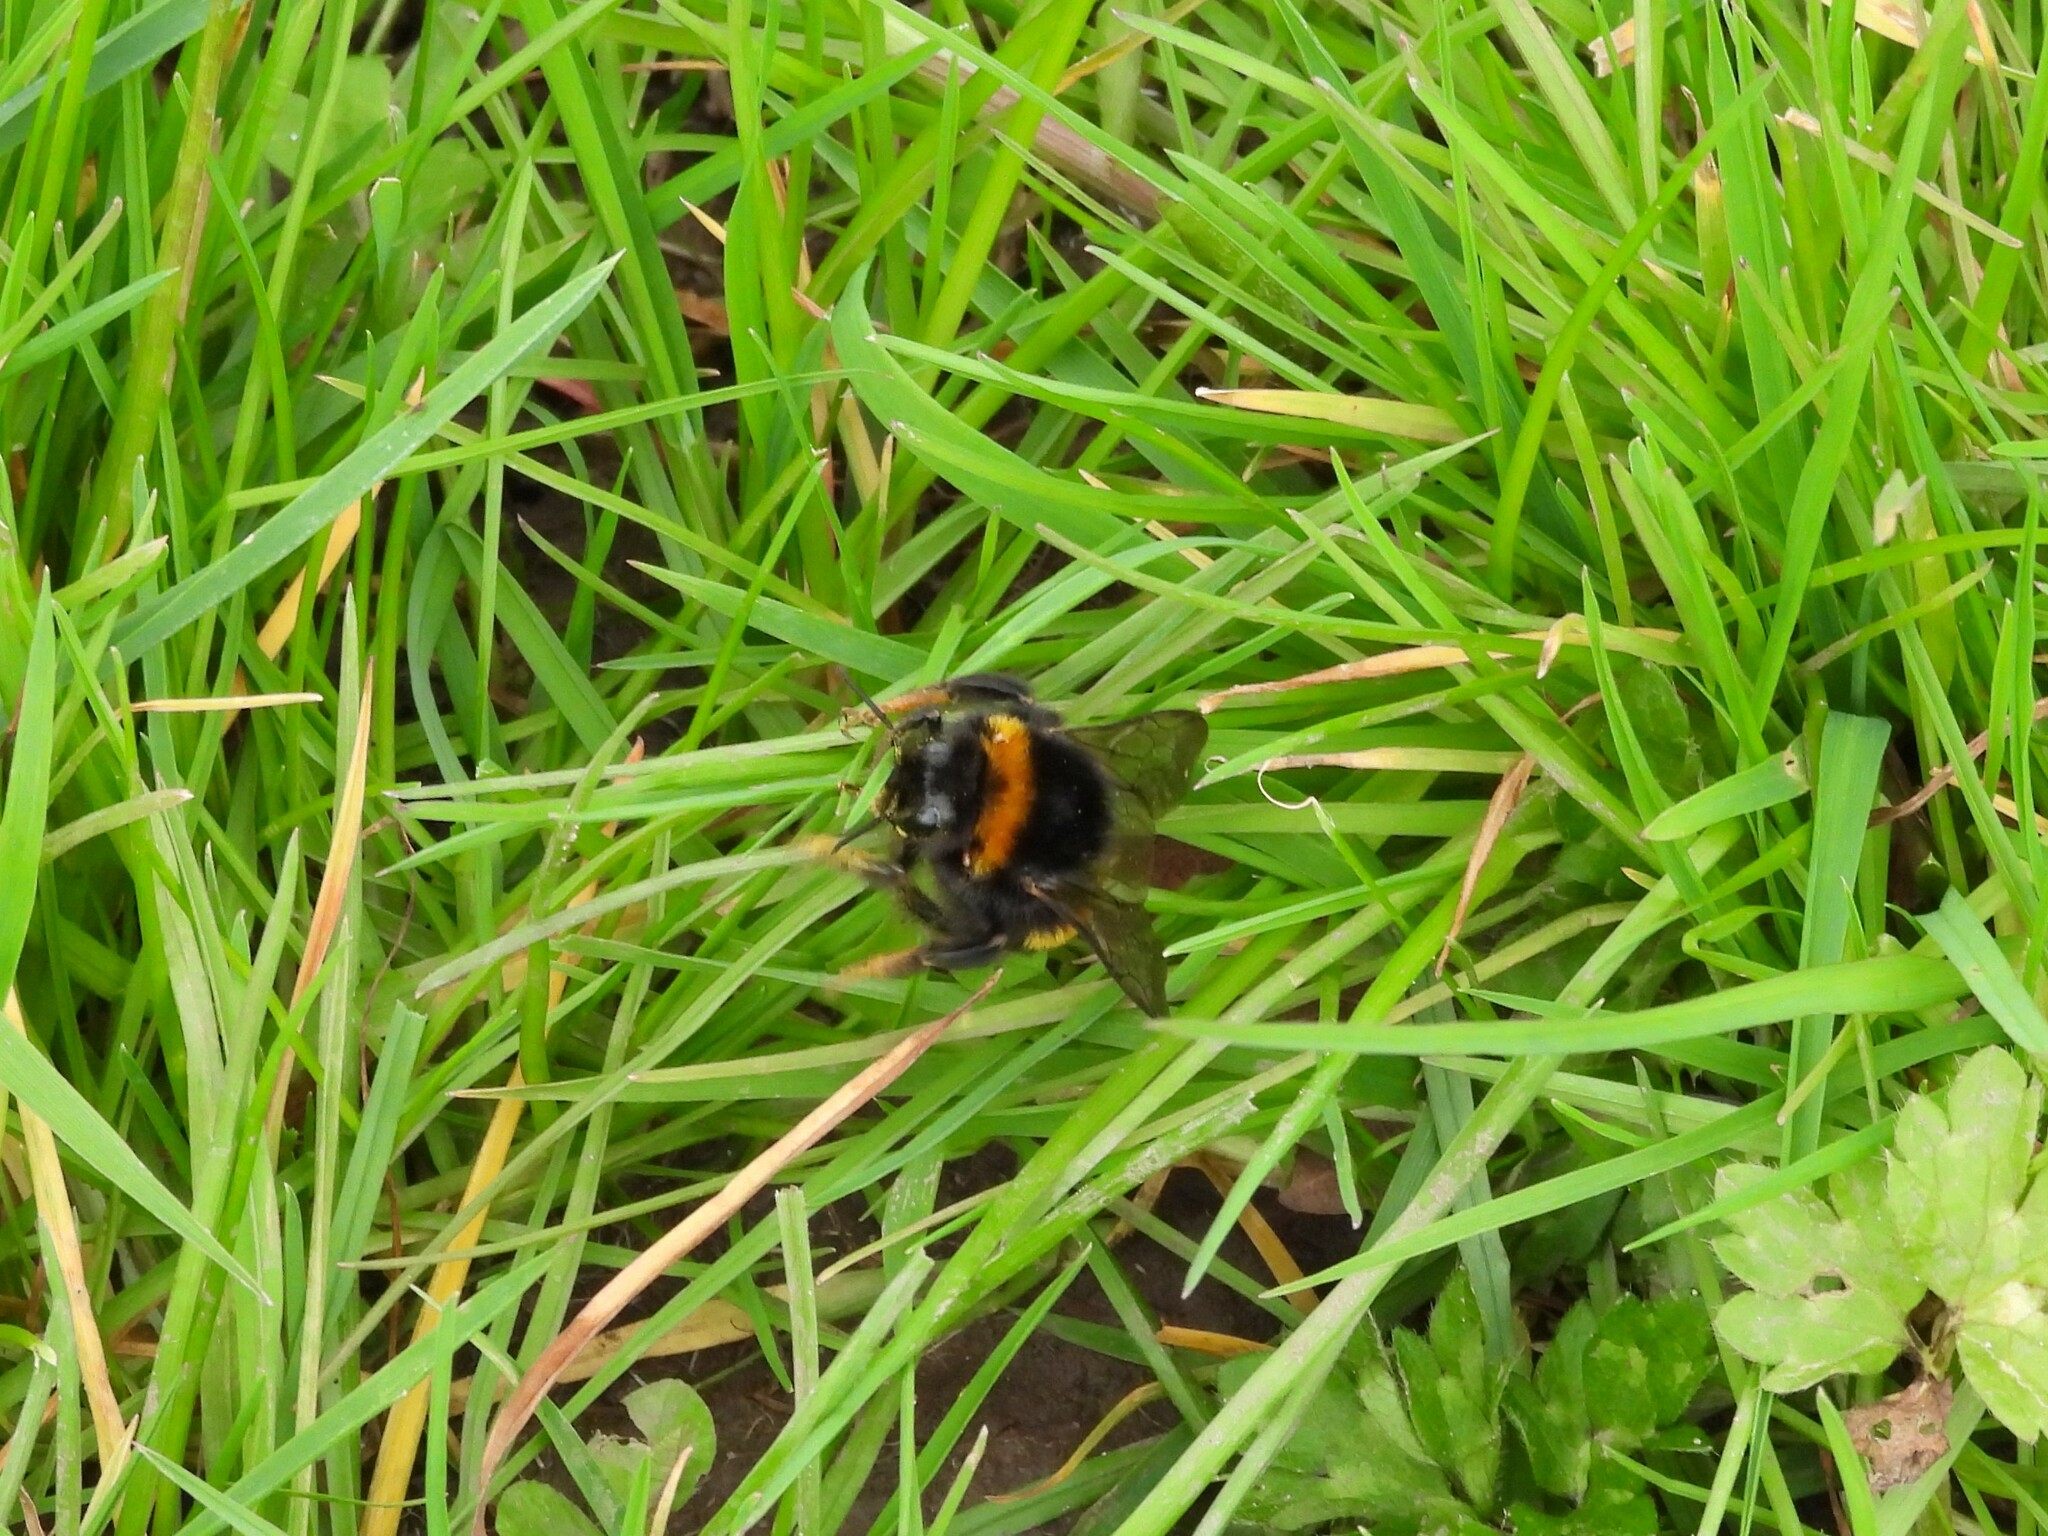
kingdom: Animalia
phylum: Arthropoda
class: Insecta
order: Hymenoptera
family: Apidae
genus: Bombus
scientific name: Bombus terrestris
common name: Buff-tailed bumblebee
